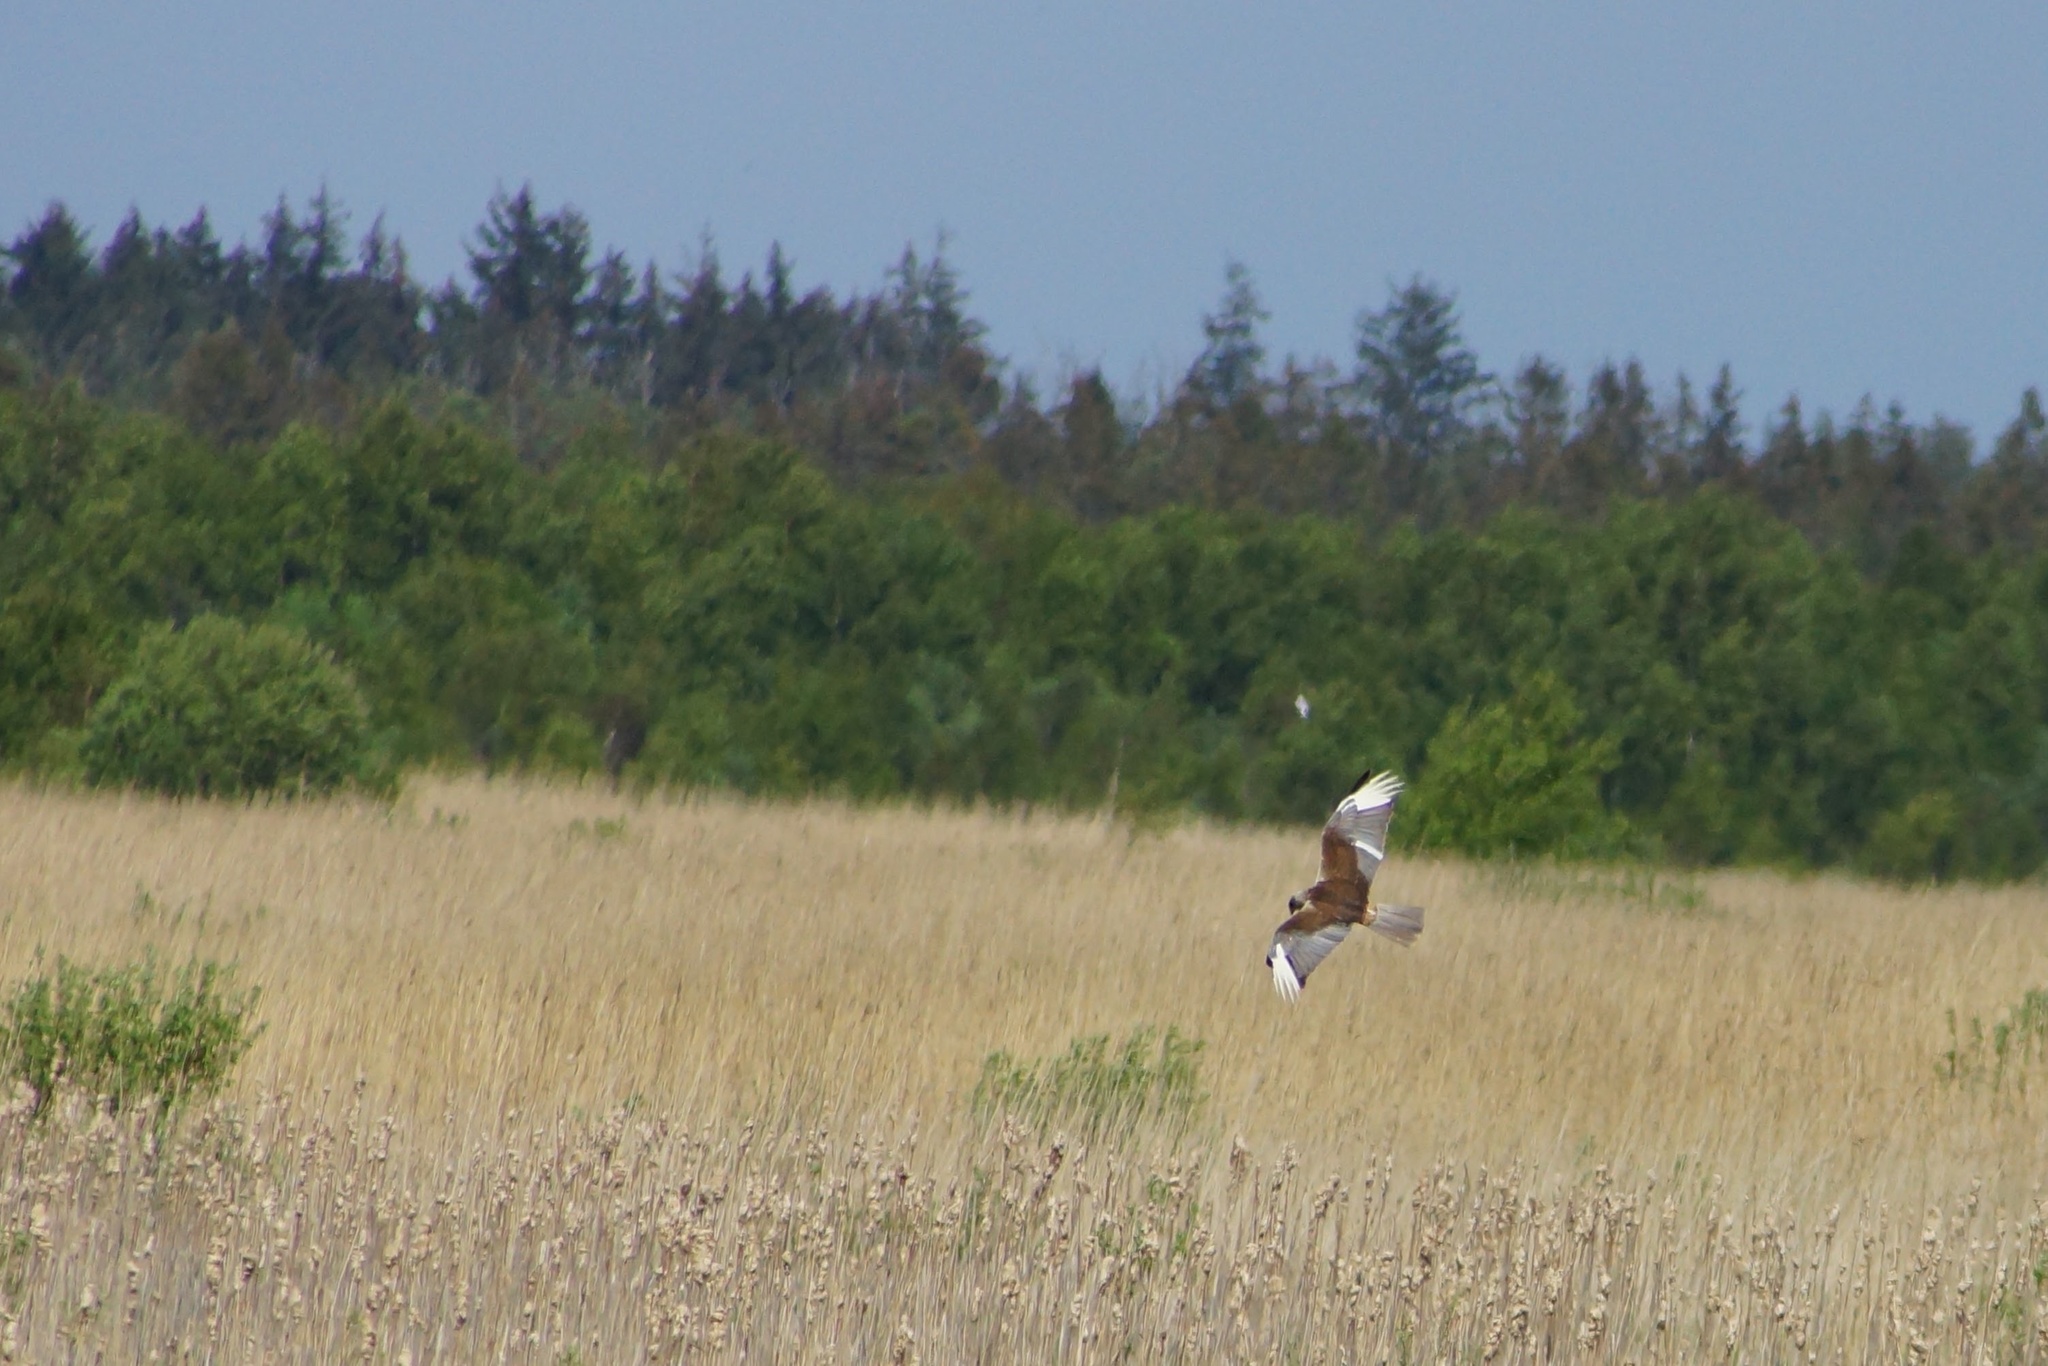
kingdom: Animalia
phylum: Chordata
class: Aves
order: Accipitriformes
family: Accipitridae
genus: Circus
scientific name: Circus aeruginosus
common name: Western marsh harrier
